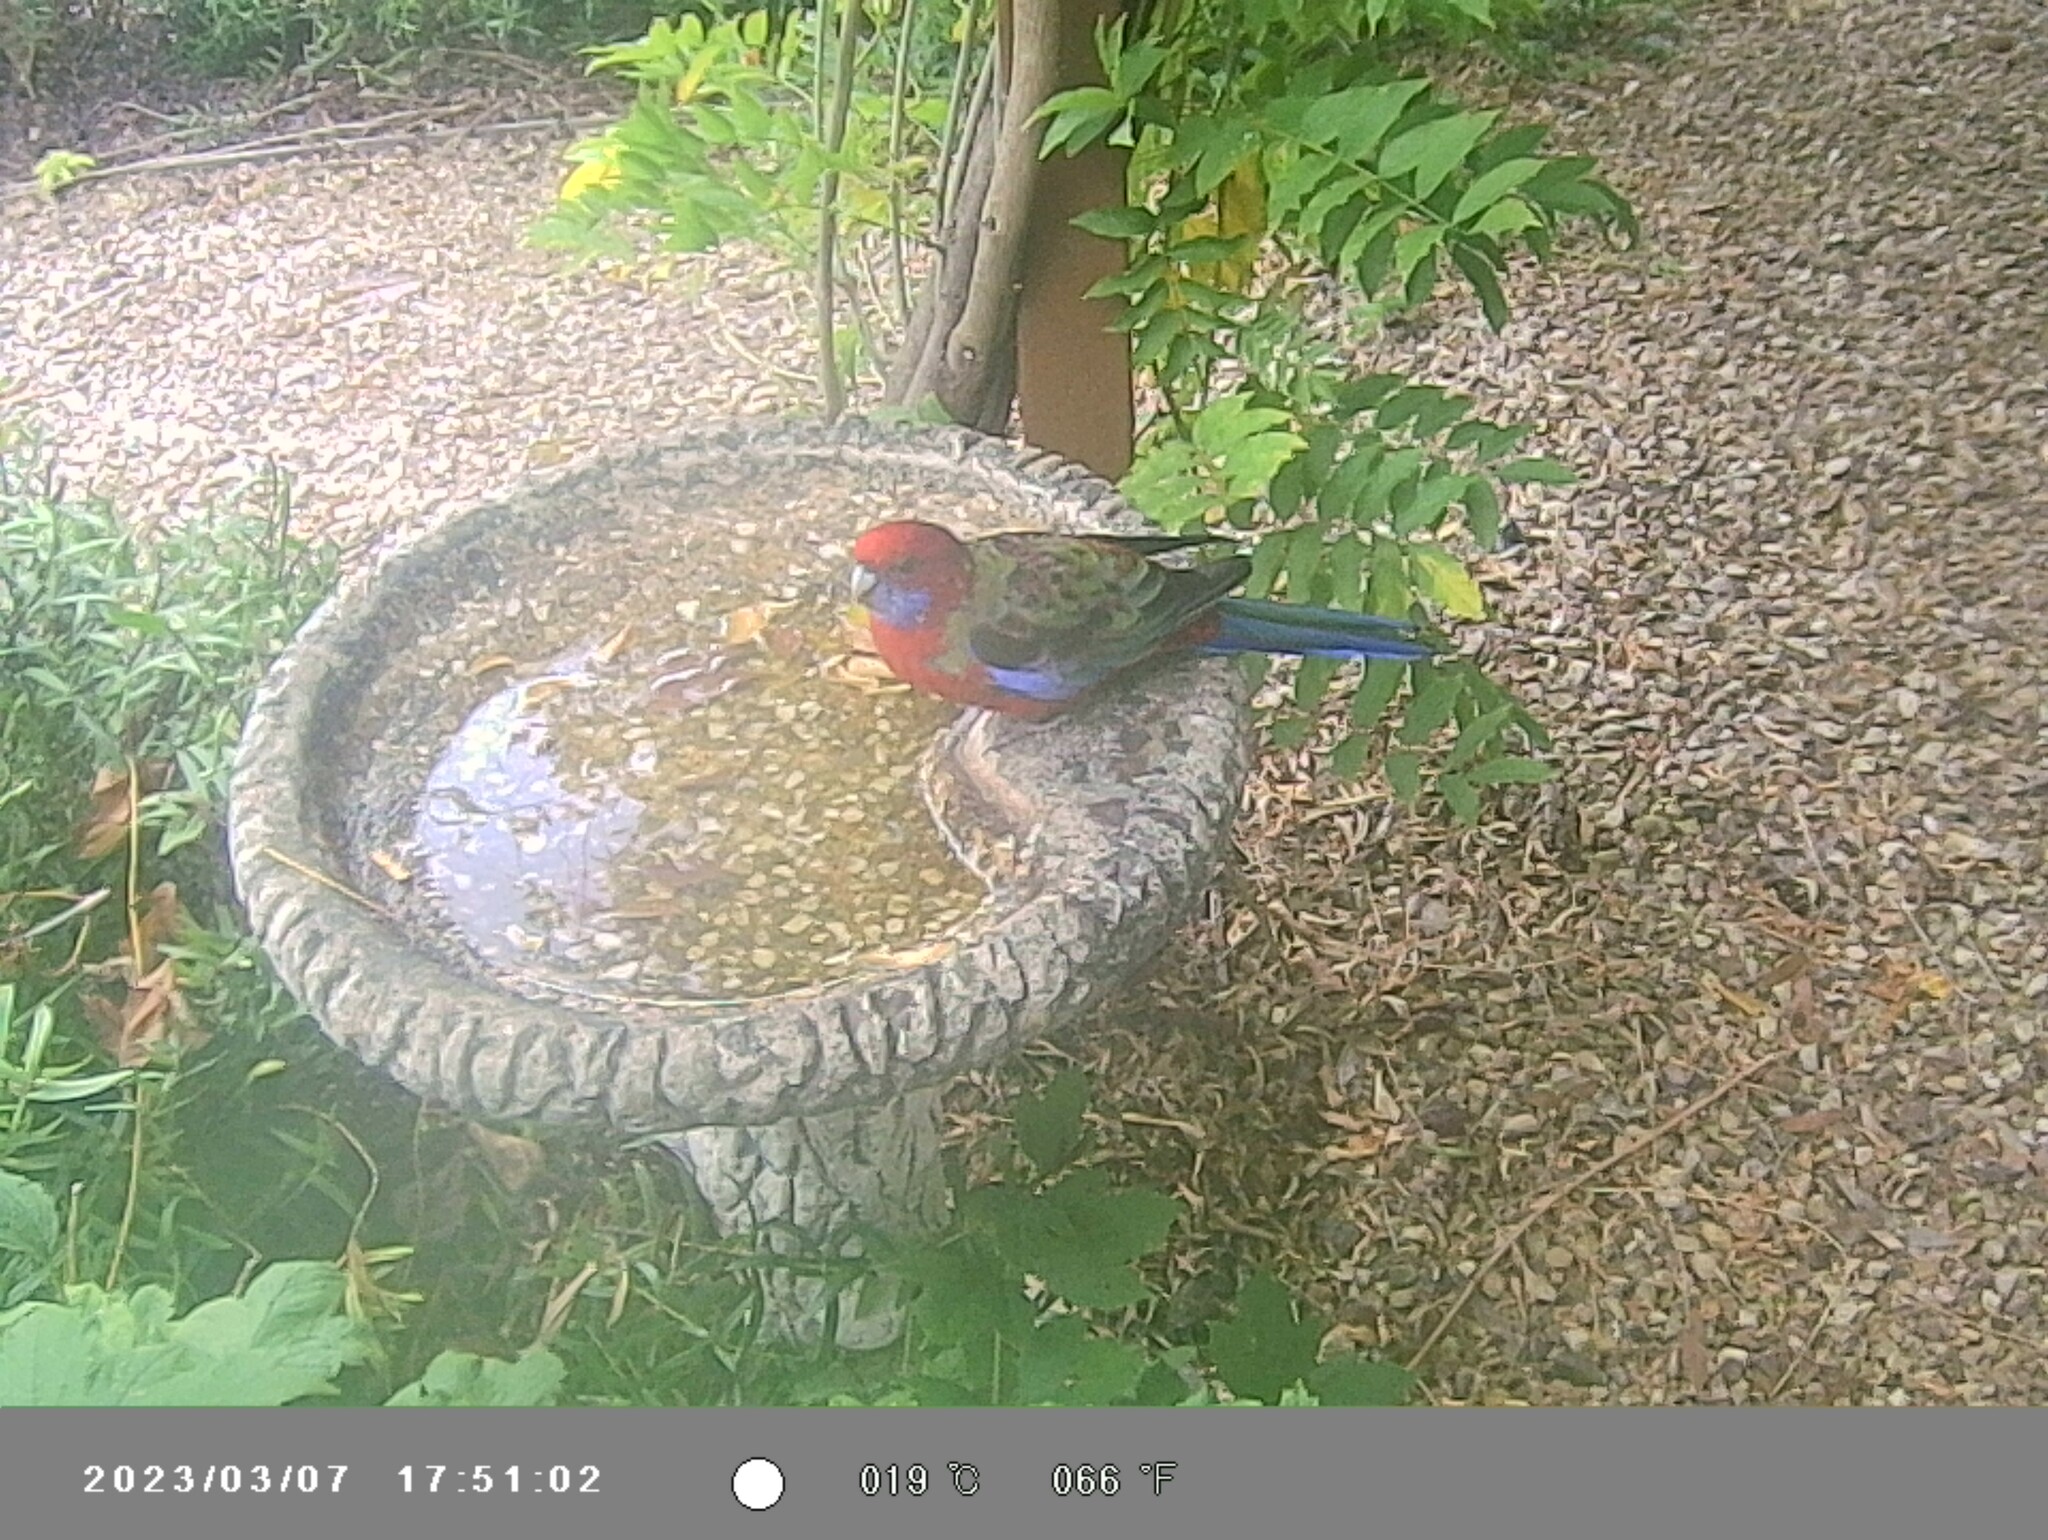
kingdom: Animalia
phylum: Chordata
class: Aves
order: Psittaciformes
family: Psittacidae
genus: Platycercus
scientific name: Platycercus elegans
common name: Crimson rosella
